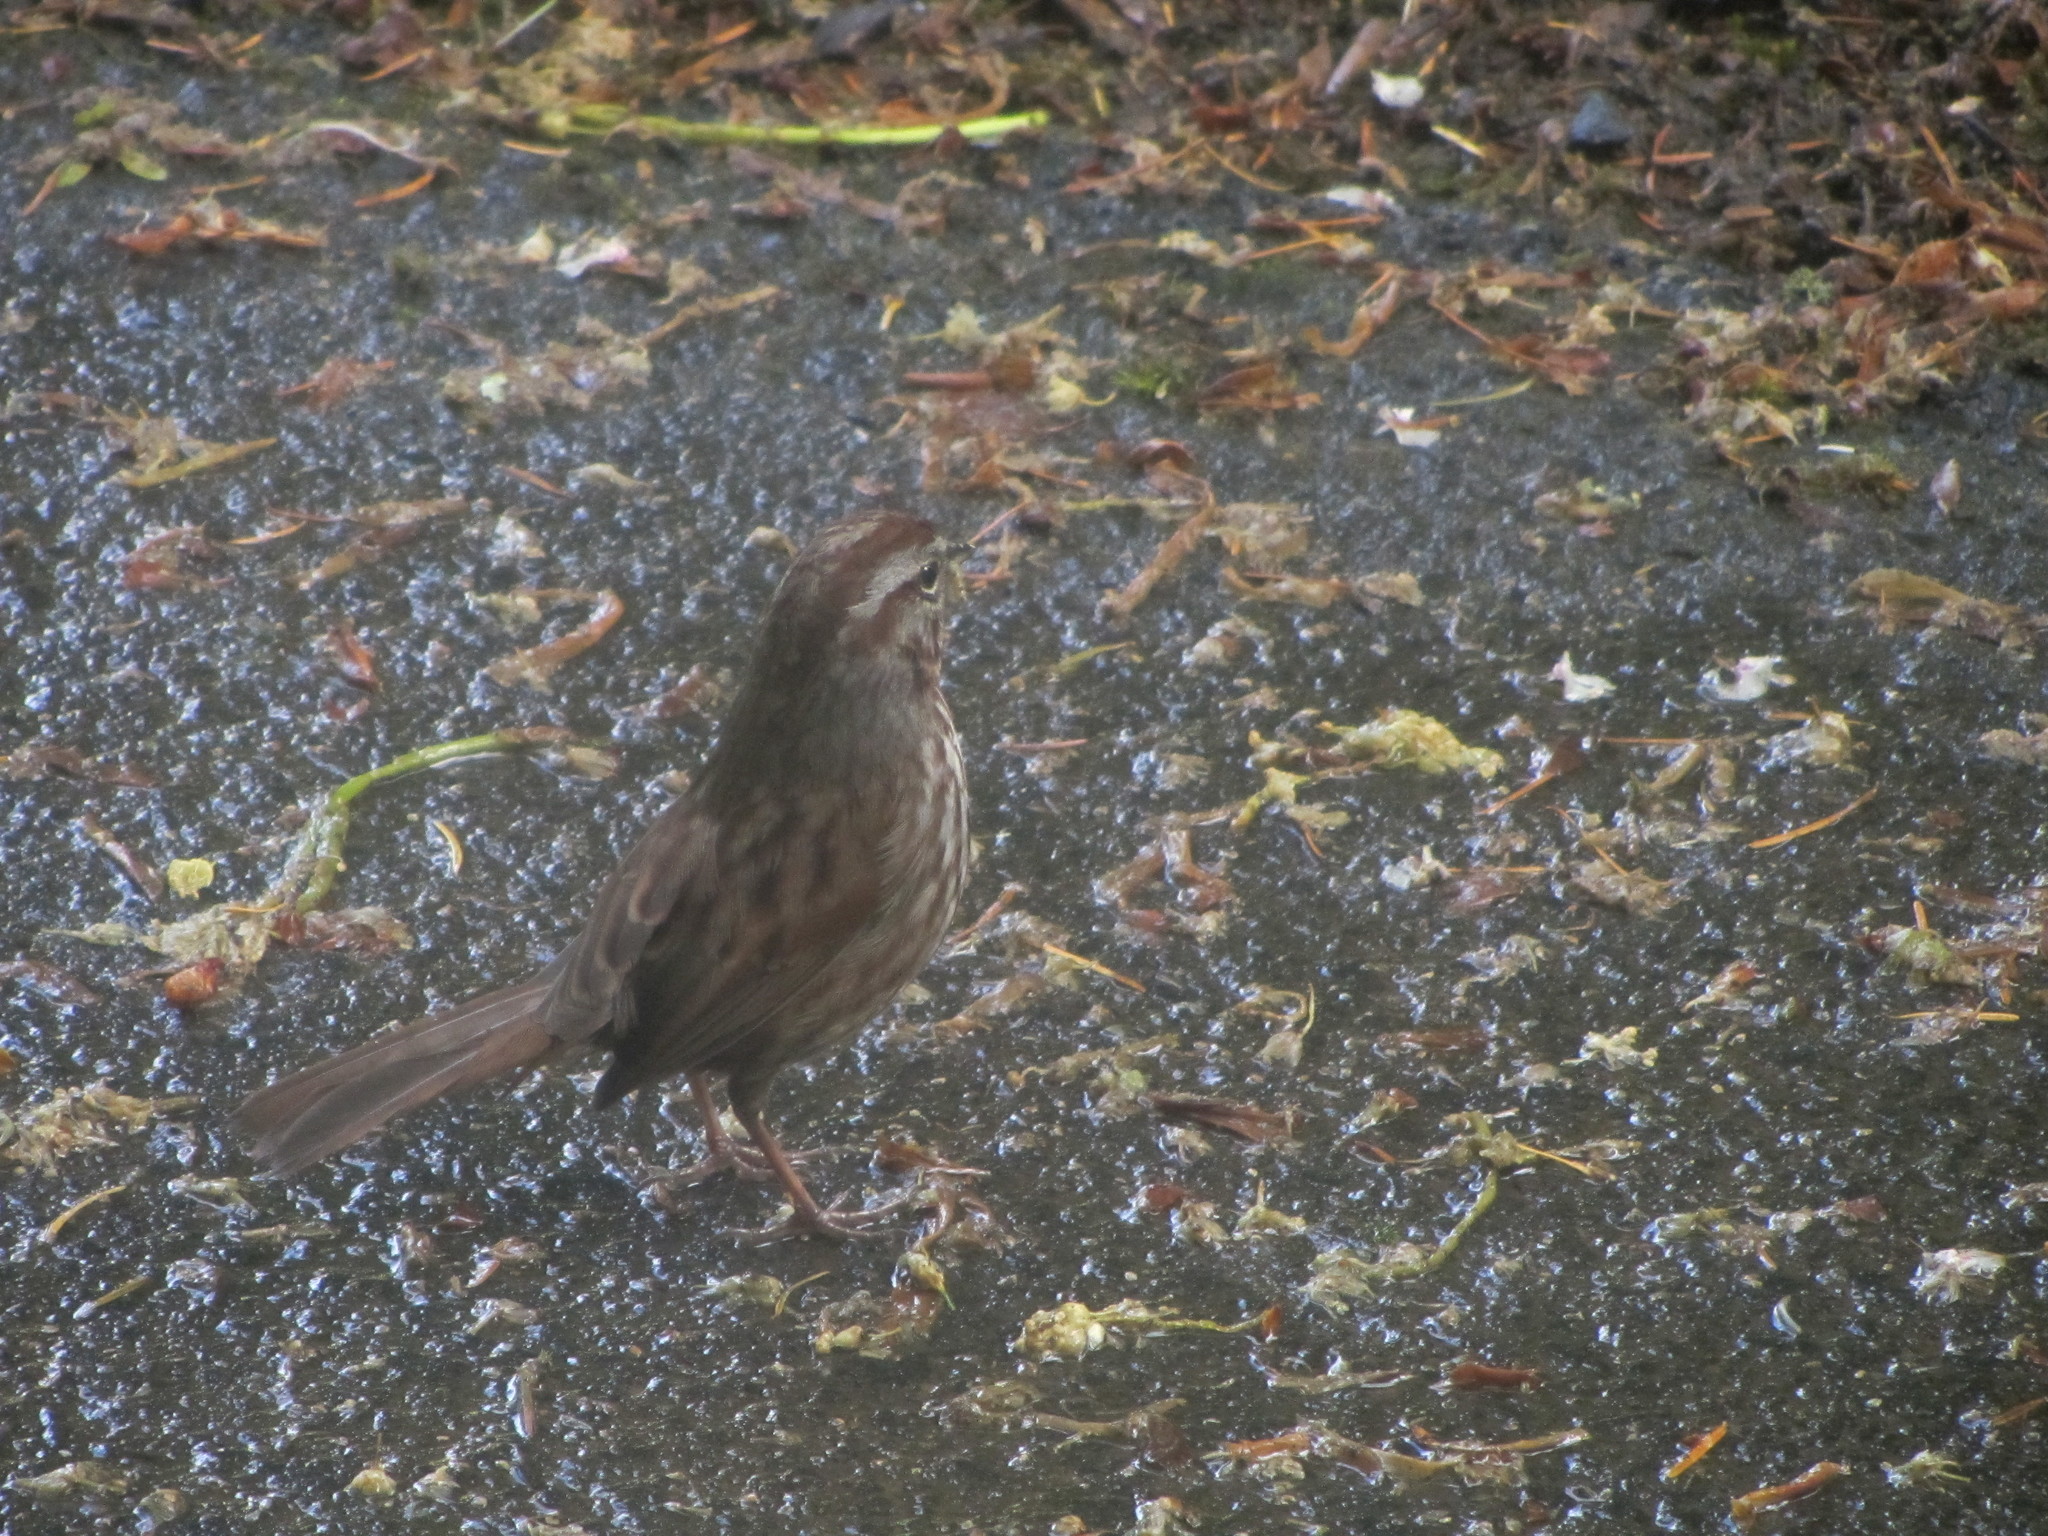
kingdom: Animalia
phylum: Chordata
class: Aves
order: Passeriformes
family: Passerellidae
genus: Melospiza
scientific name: Melospiza melodia
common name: Song sparrow
